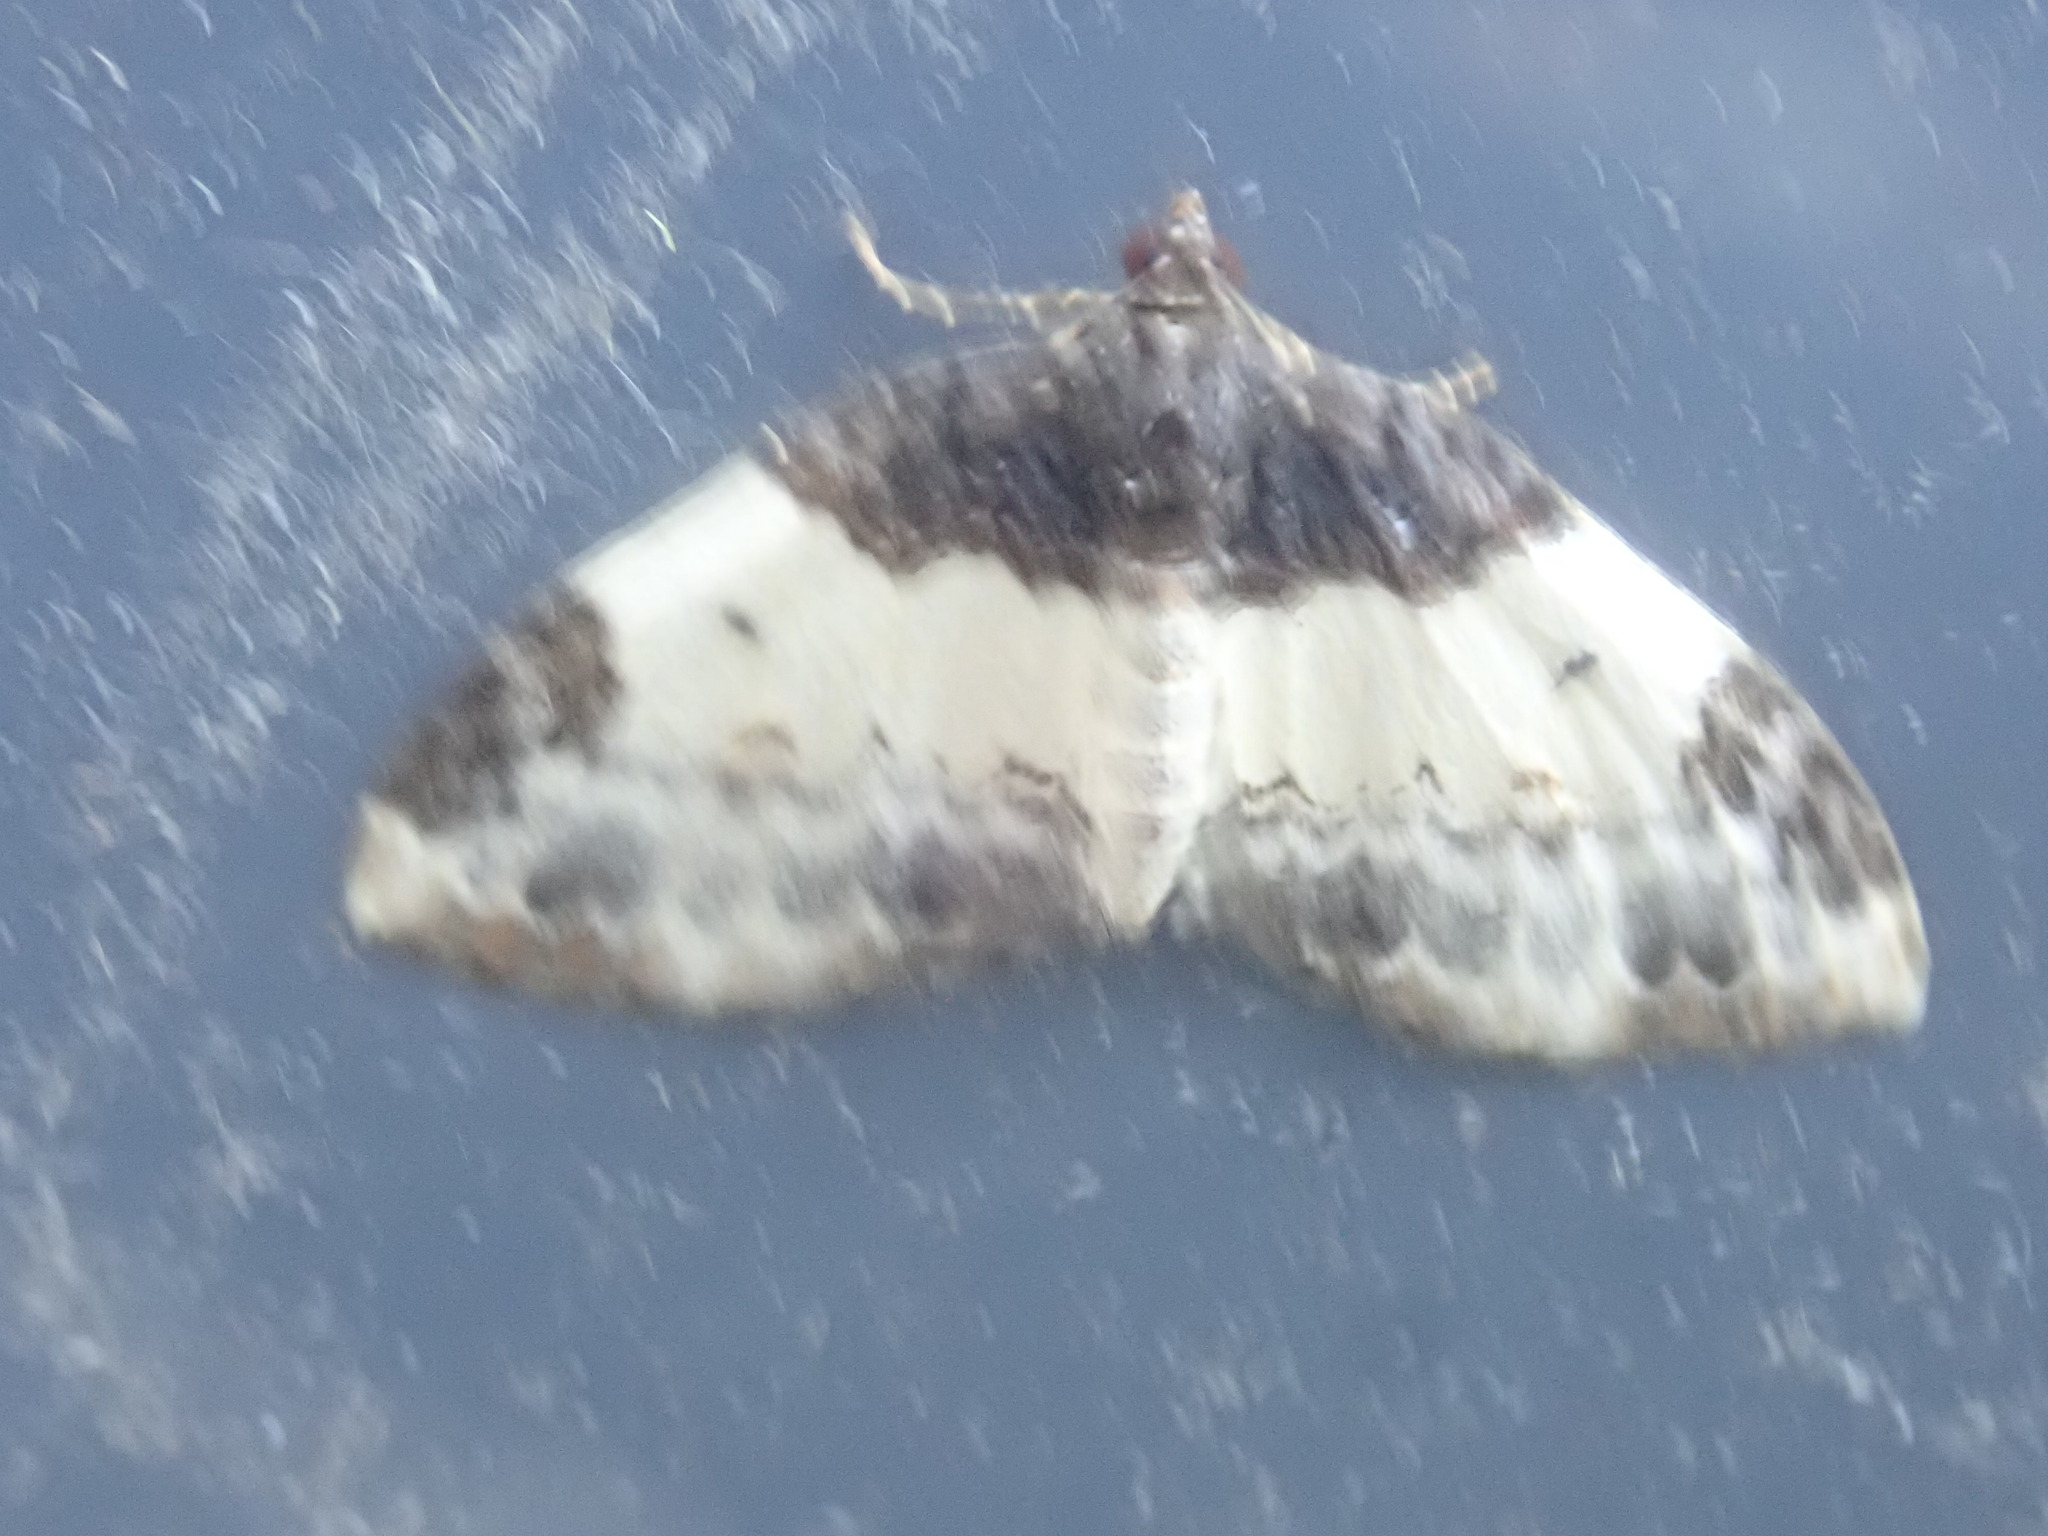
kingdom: Animalia
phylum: Arthropoda
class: Insecta
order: Lepidoptera
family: Geometridae
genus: Mesoleuca
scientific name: Mesoleuca ruficillata
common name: White-ribboned carpet moth
